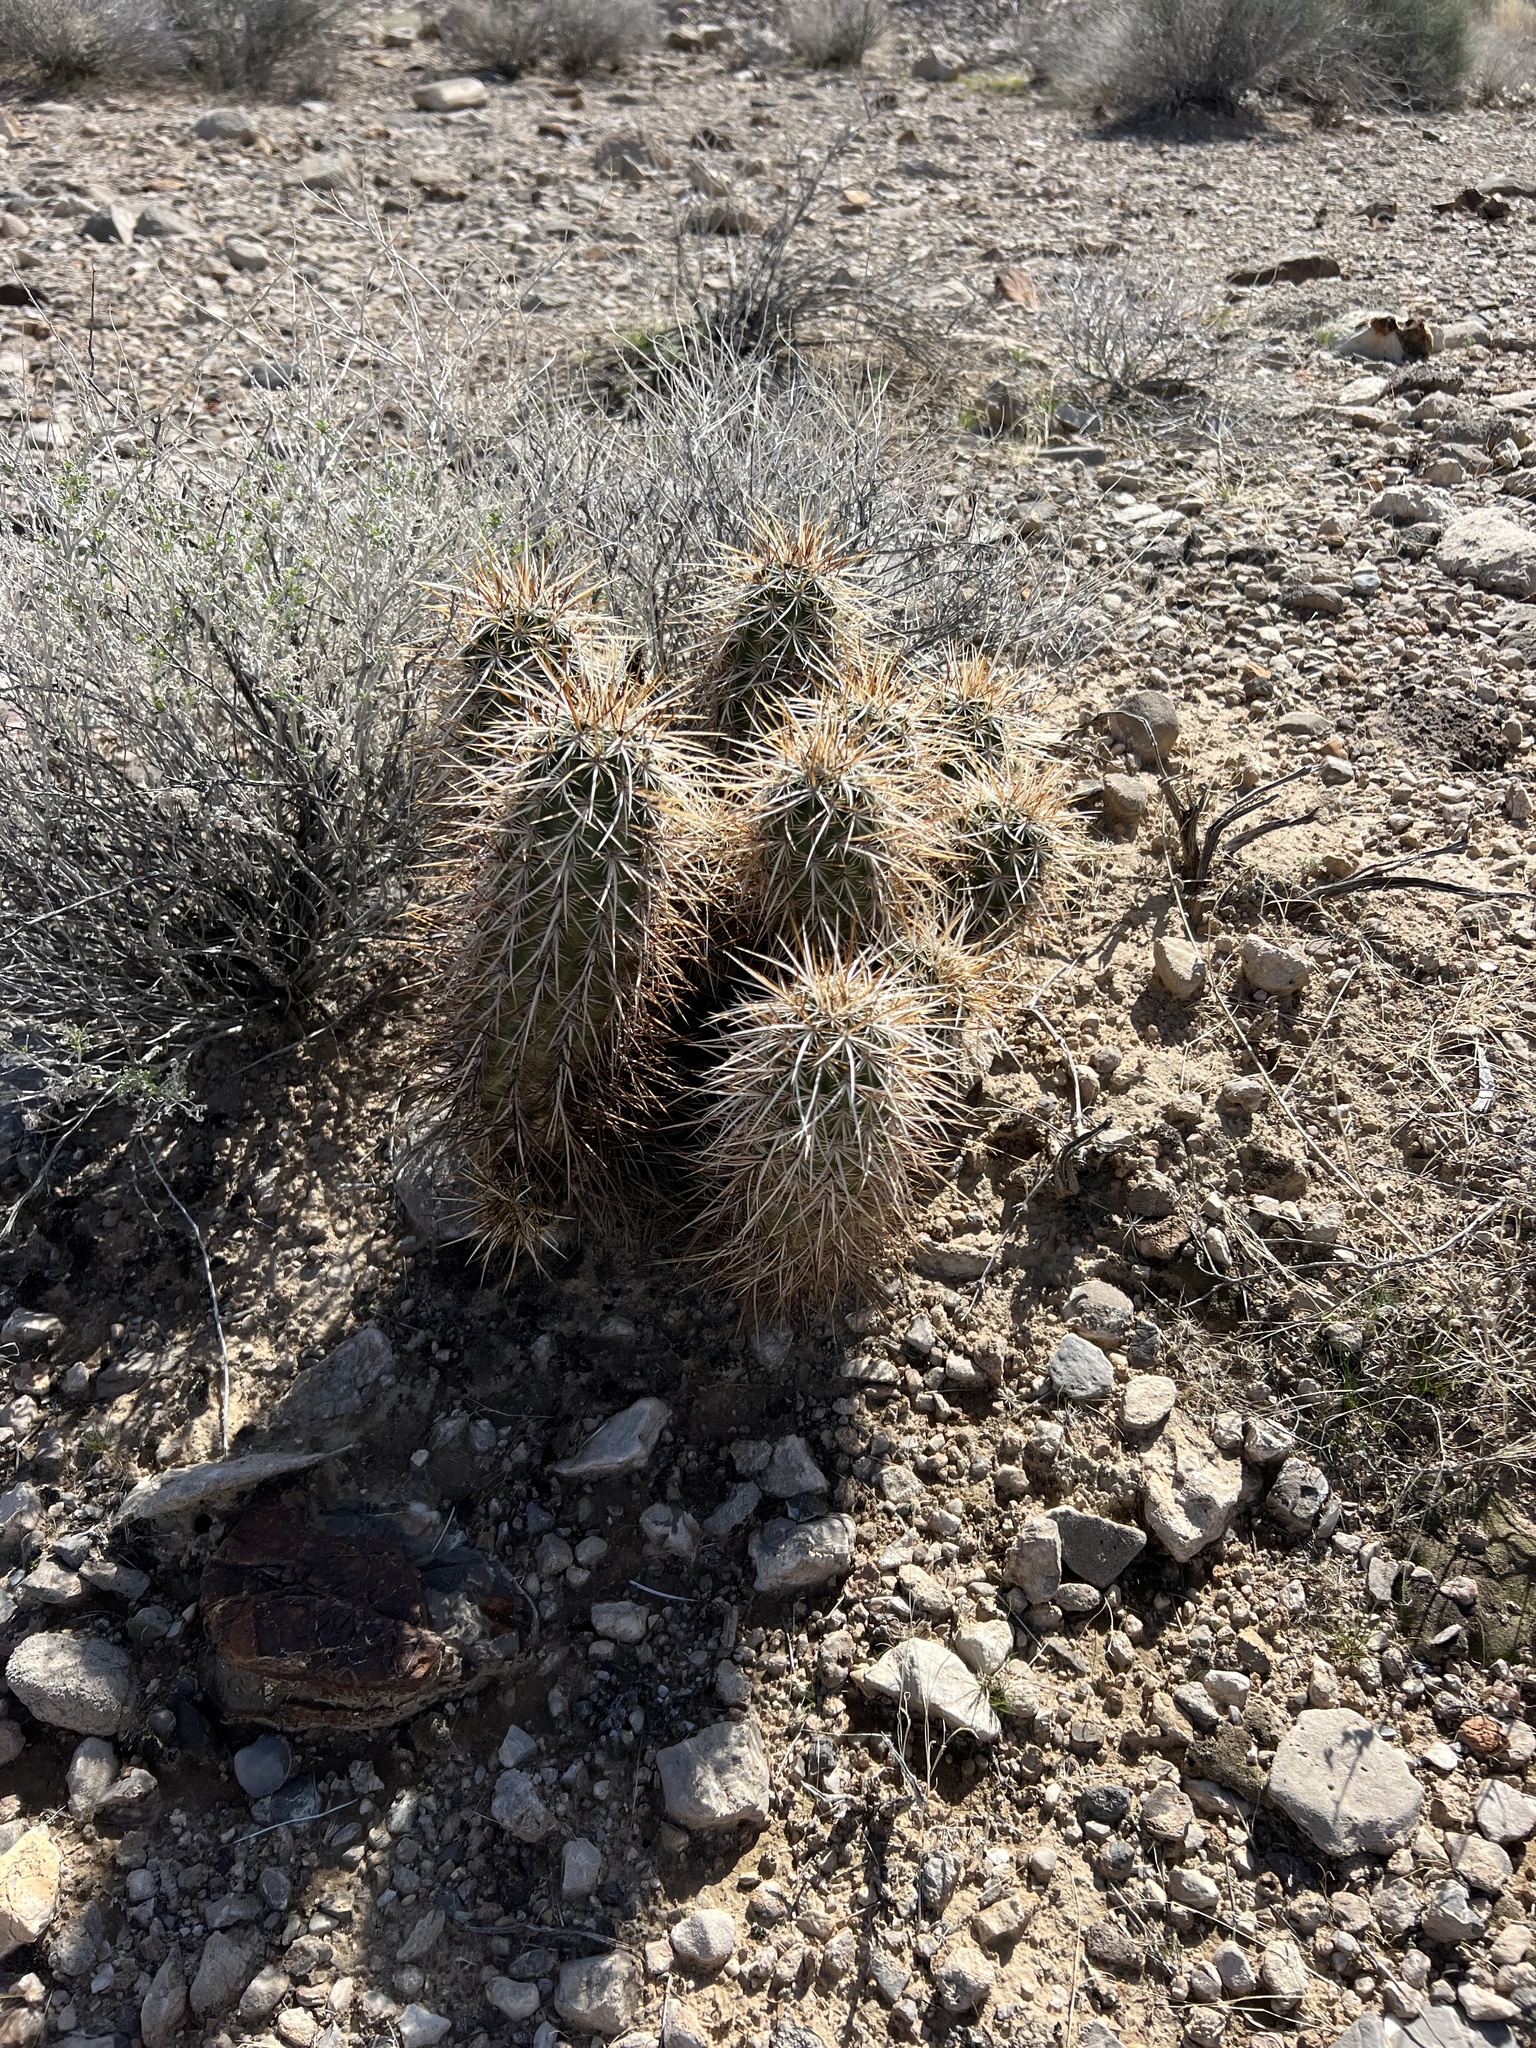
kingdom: Plantae
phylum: Tracheophyta
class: Magnoliopsida
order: Caryophyllales
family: Cactaceae
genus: Echinocereus
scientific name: Echinocereus engelmannii
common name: Engelmann's hedgehog cactus
